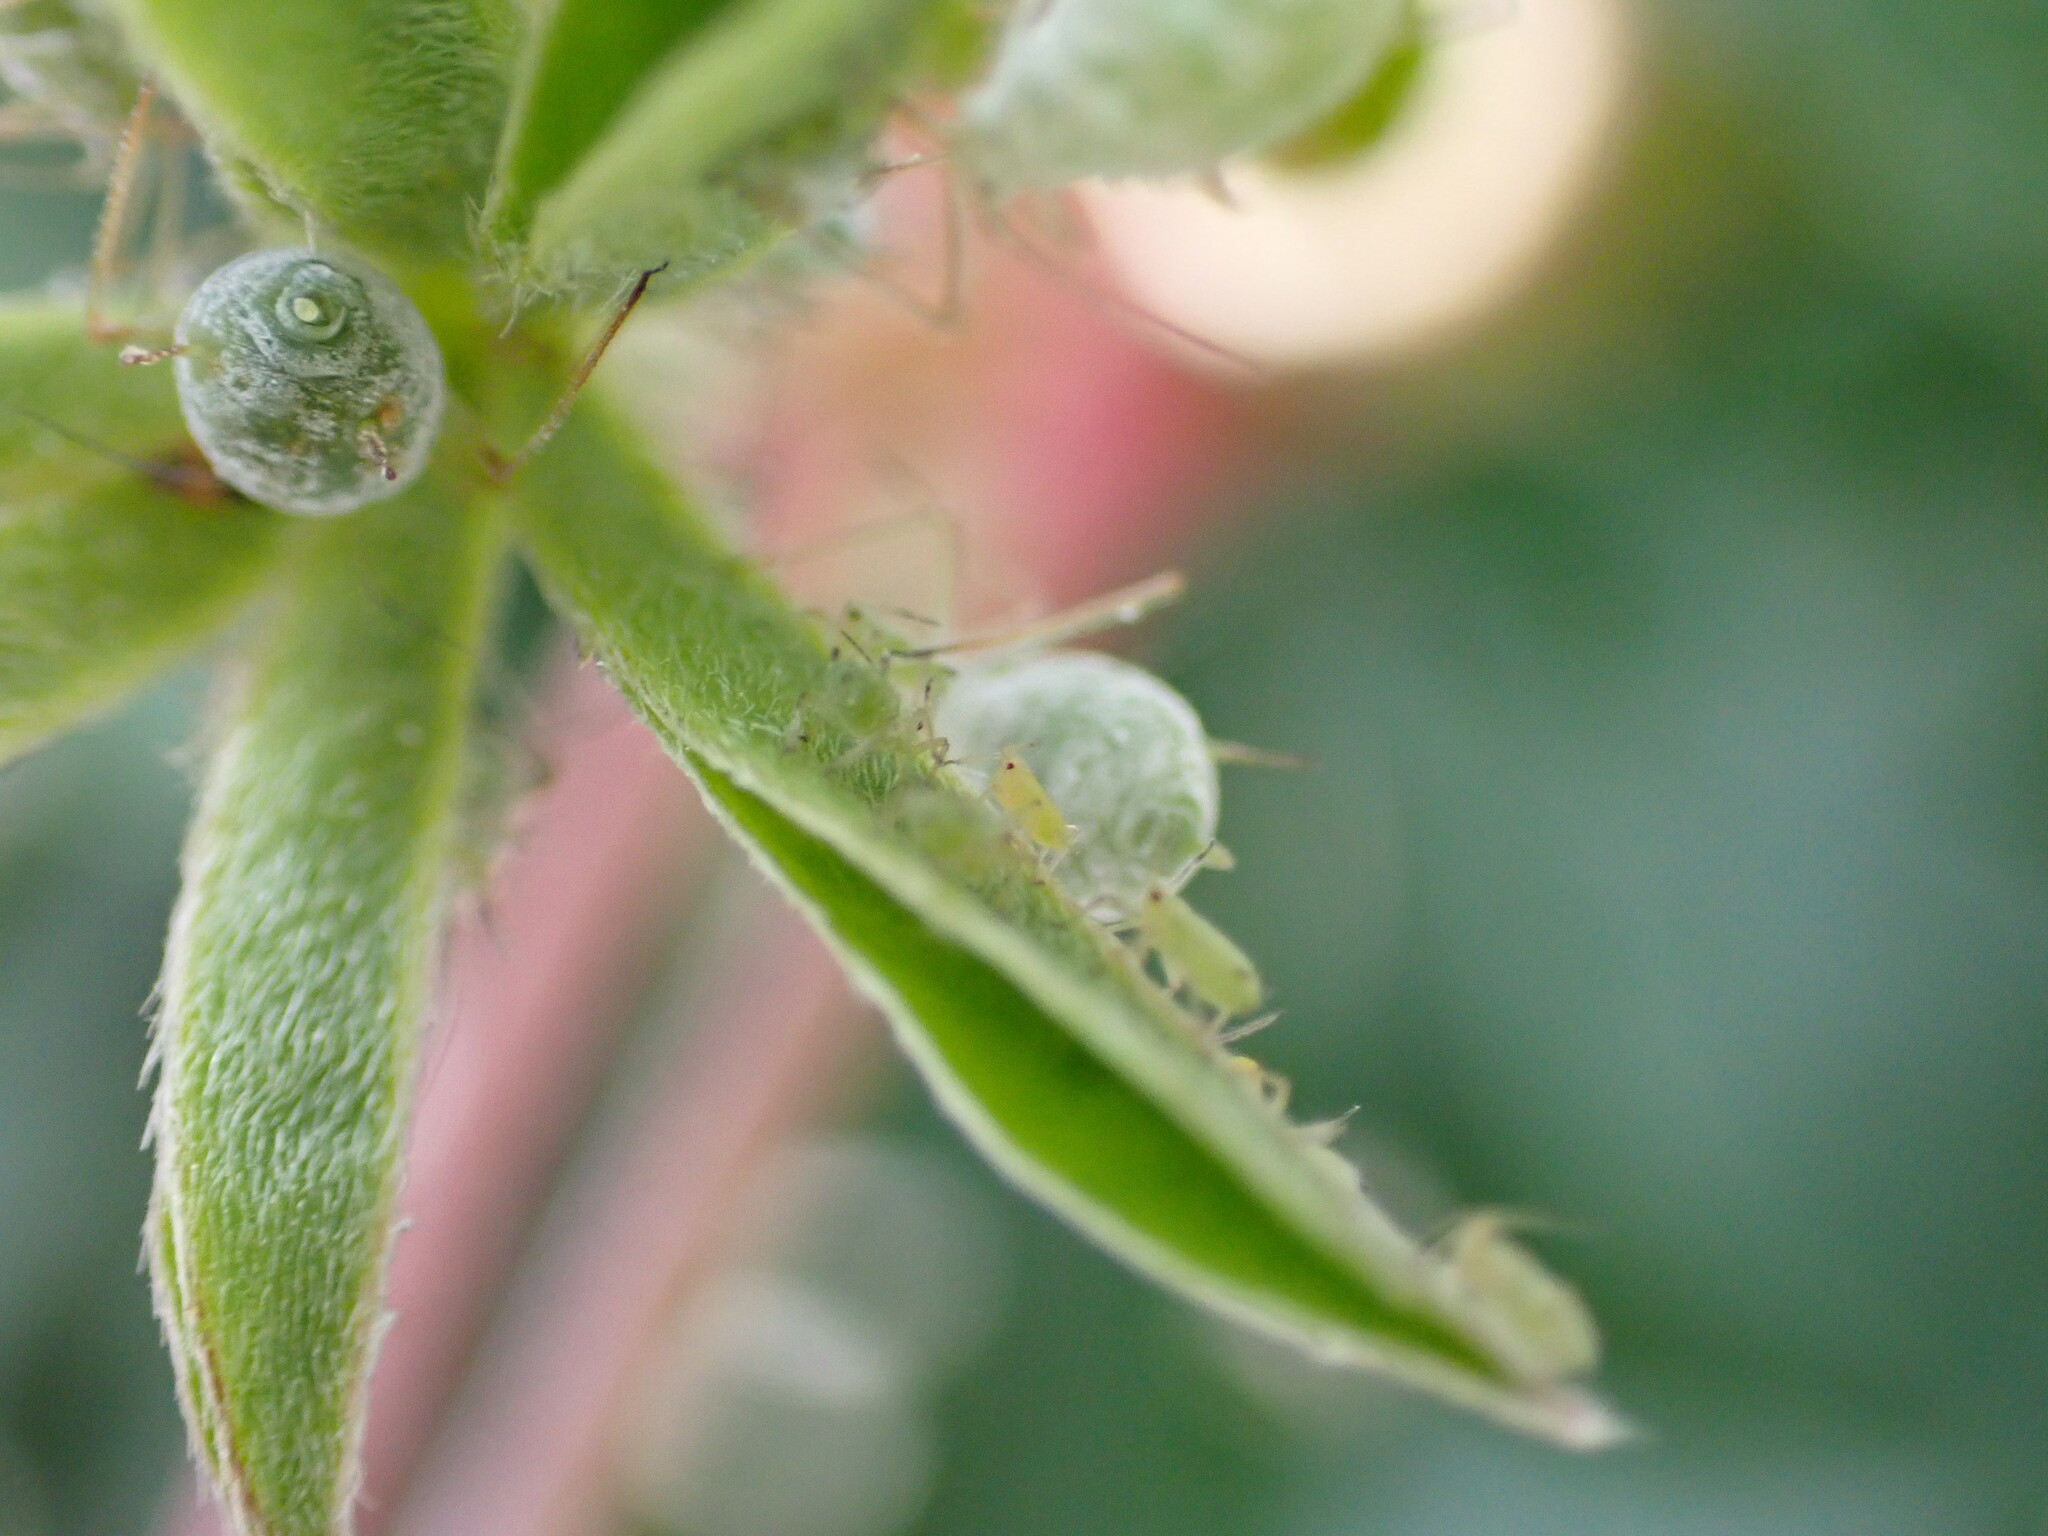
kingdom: Animalia
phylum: Arthropoda
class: Insecta
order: Hemiptera
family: Aphididae
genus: Macrosiphum
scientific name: Macrosiphum albifrons
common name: Lupine aphid
